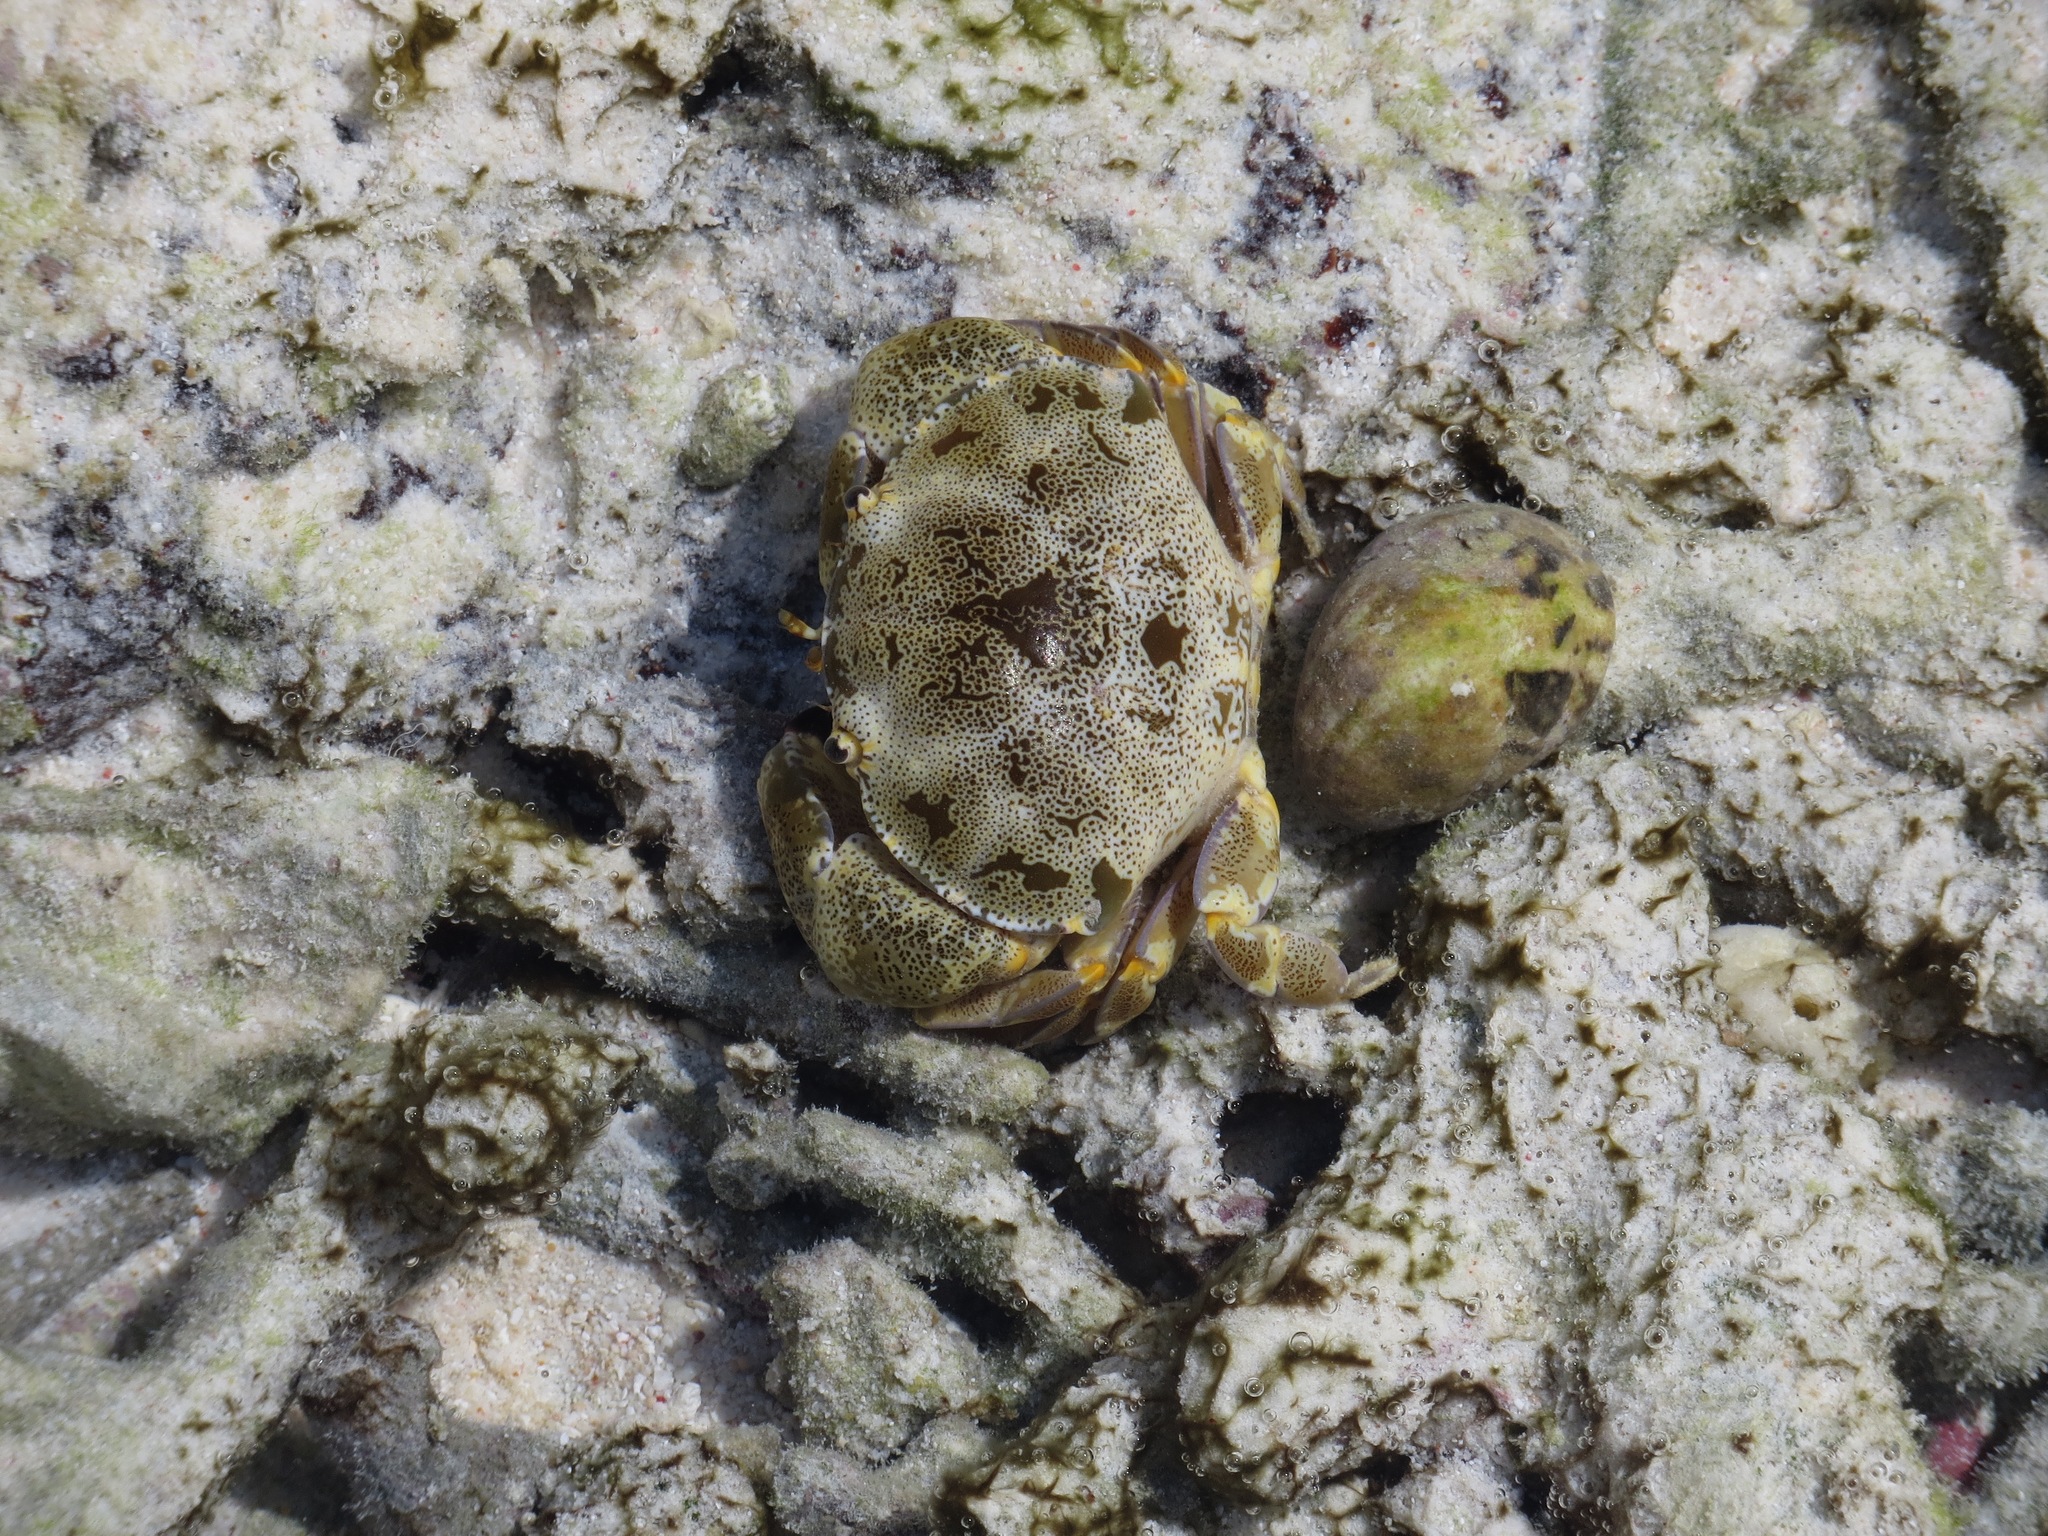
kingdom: Animalia
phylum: Arthropoda
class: Malacostraca
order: Decapoda
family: Xanthidae
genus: Atergatis
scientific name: Atergatis floridus
